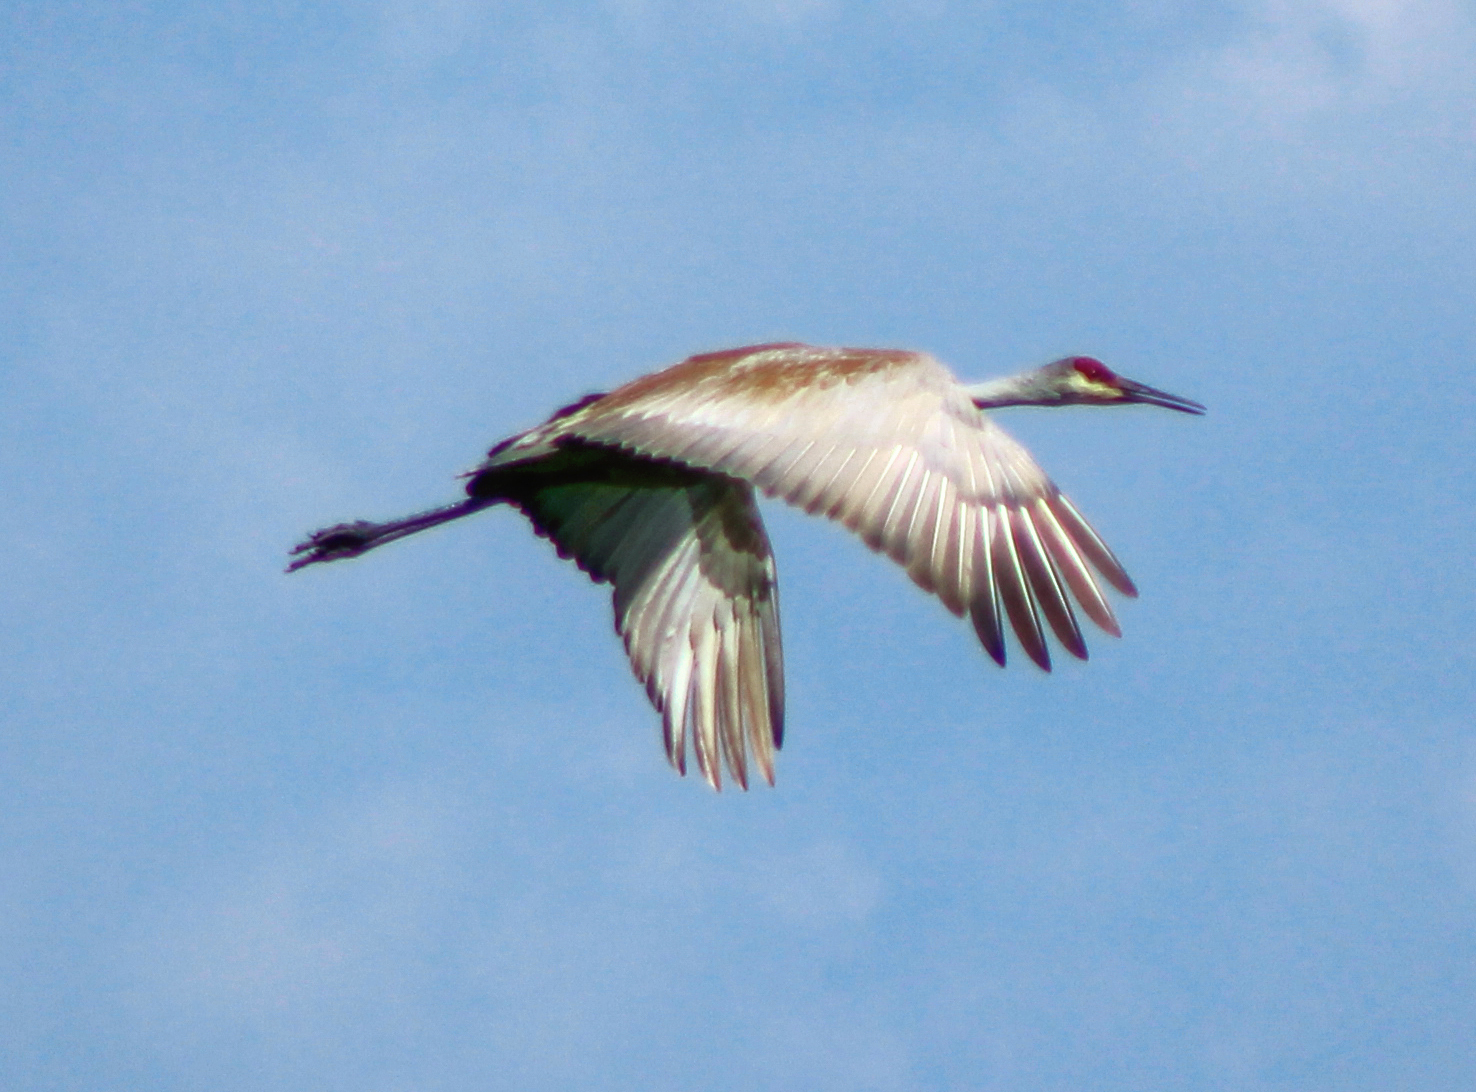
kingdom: Animalia
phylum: Chordata
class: Aves
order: Gruiformes
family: Gruidae
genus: Grus
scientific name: Grus canadensis
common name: Sandhill crane
